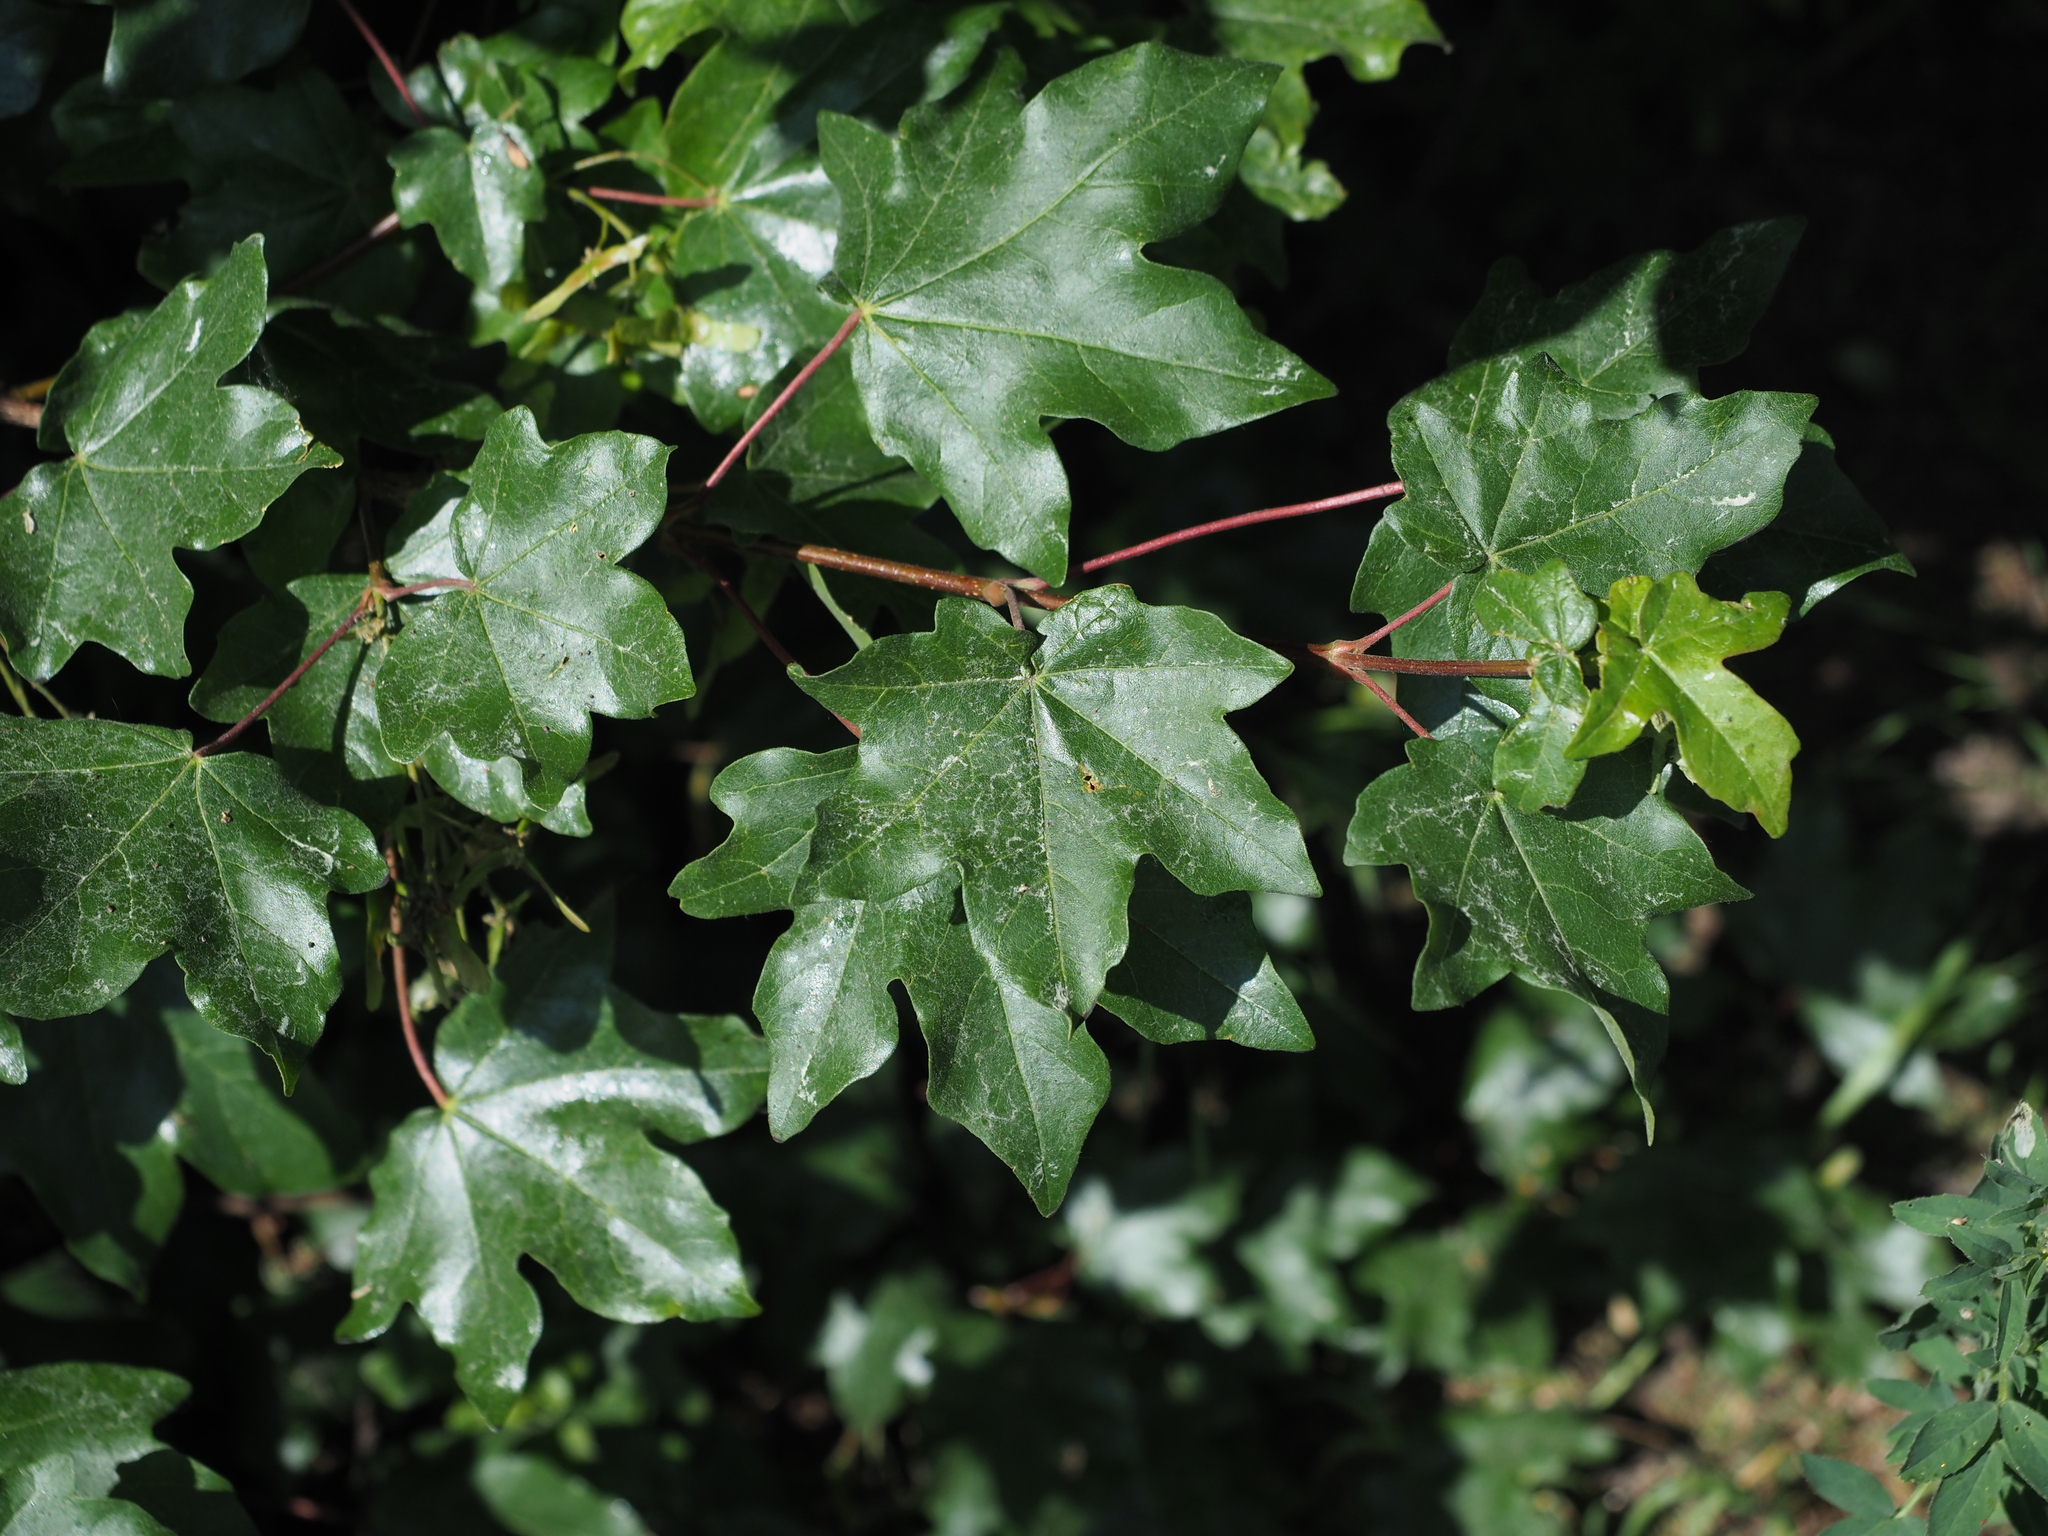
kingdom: Plantae
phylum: Tracheophyta
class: Magnoliopsida
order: Sapindales
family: Sapindaceae
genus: Acer
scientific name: Acer campestre
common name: Field maple
